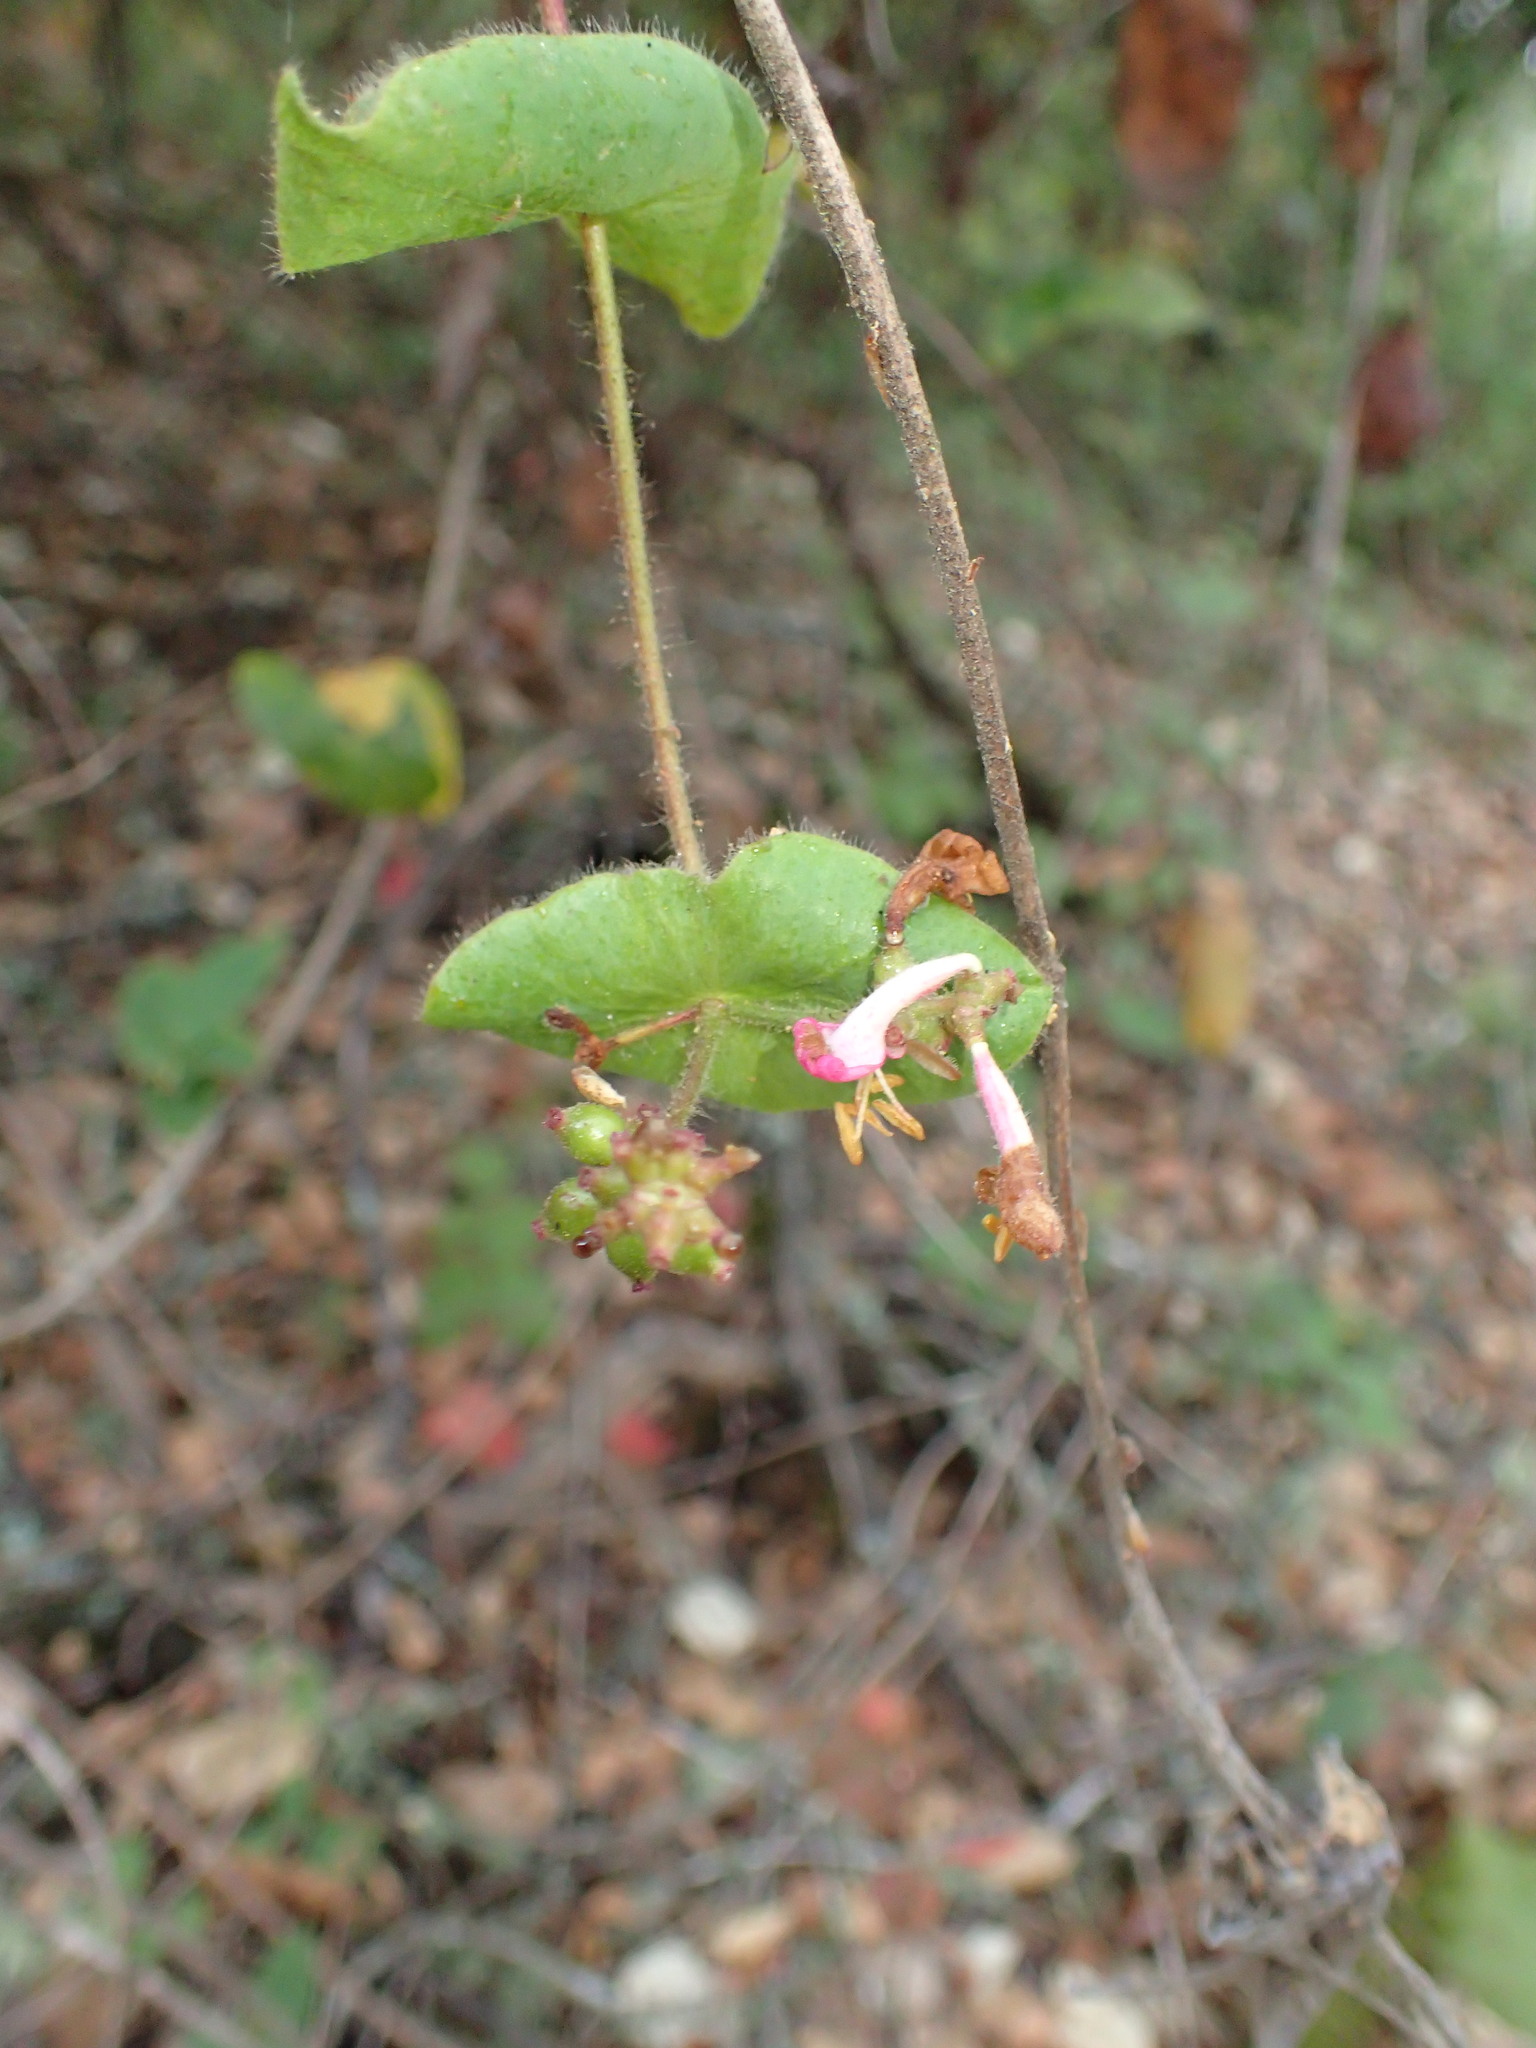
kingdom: Plantae
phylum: Tracheophyta
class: Magnoliopsida
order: Dipsacales
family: Caprifoliaceae
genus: Lonicera
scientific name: Lonicera hispidula
